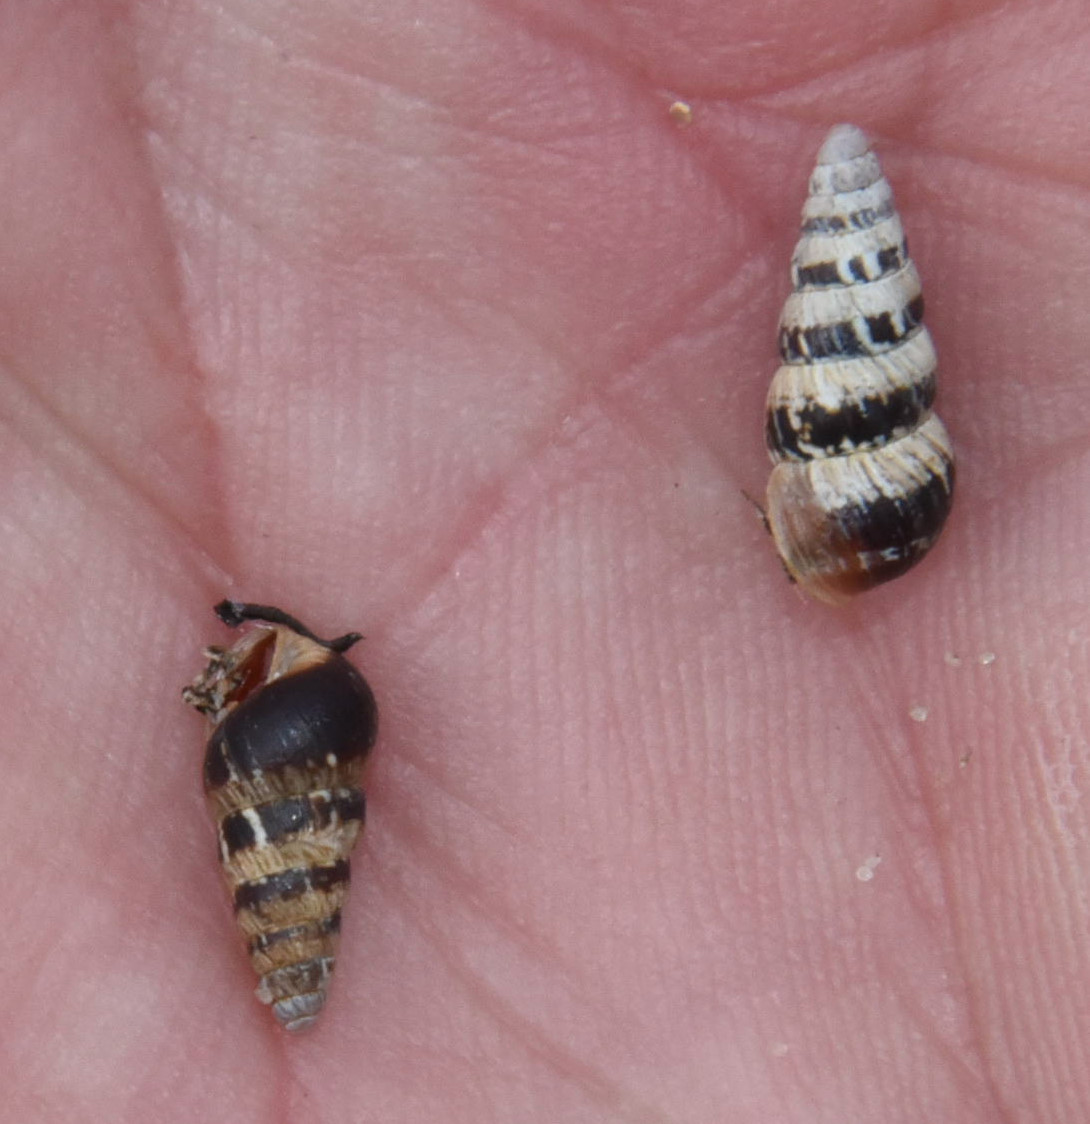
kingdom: Animalia
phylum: Mollusca
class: Gastropoda
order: Stylommatophora
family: Geomitridae
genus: Cochlicella
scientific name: Cochlicella acuta
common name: Pointed snail
